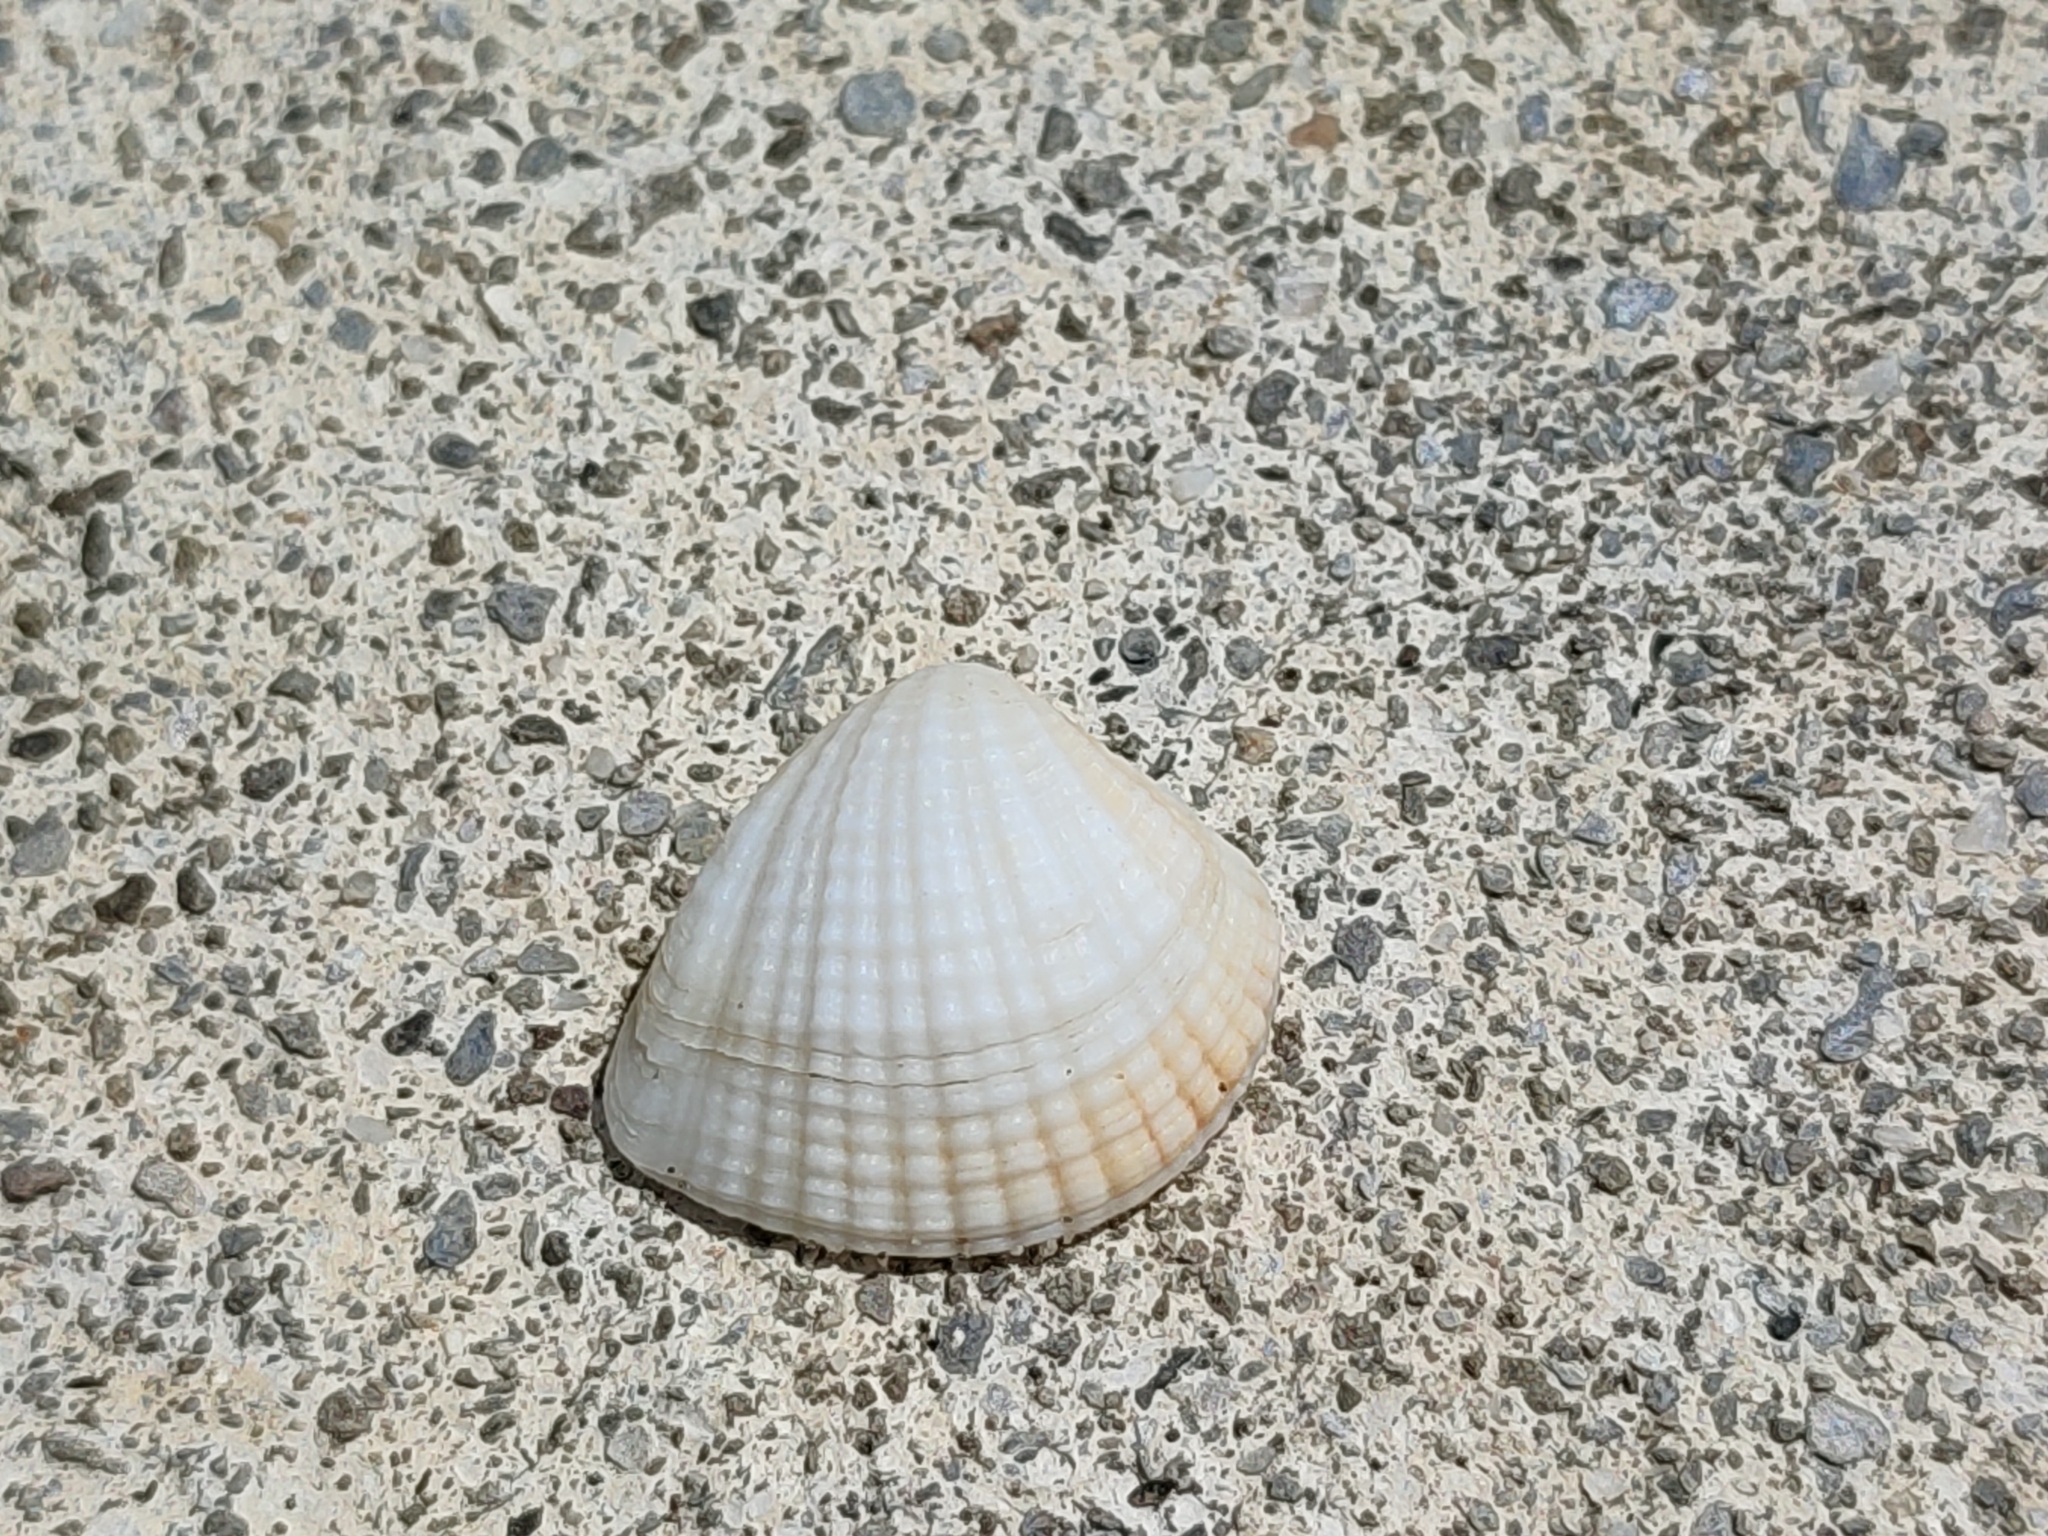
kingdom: Animalia
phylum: Mollusca
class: Bivalvia
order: Venerida
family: Veneridae
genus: Anomalodiscus
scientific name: Anomalodiscus squamosus
